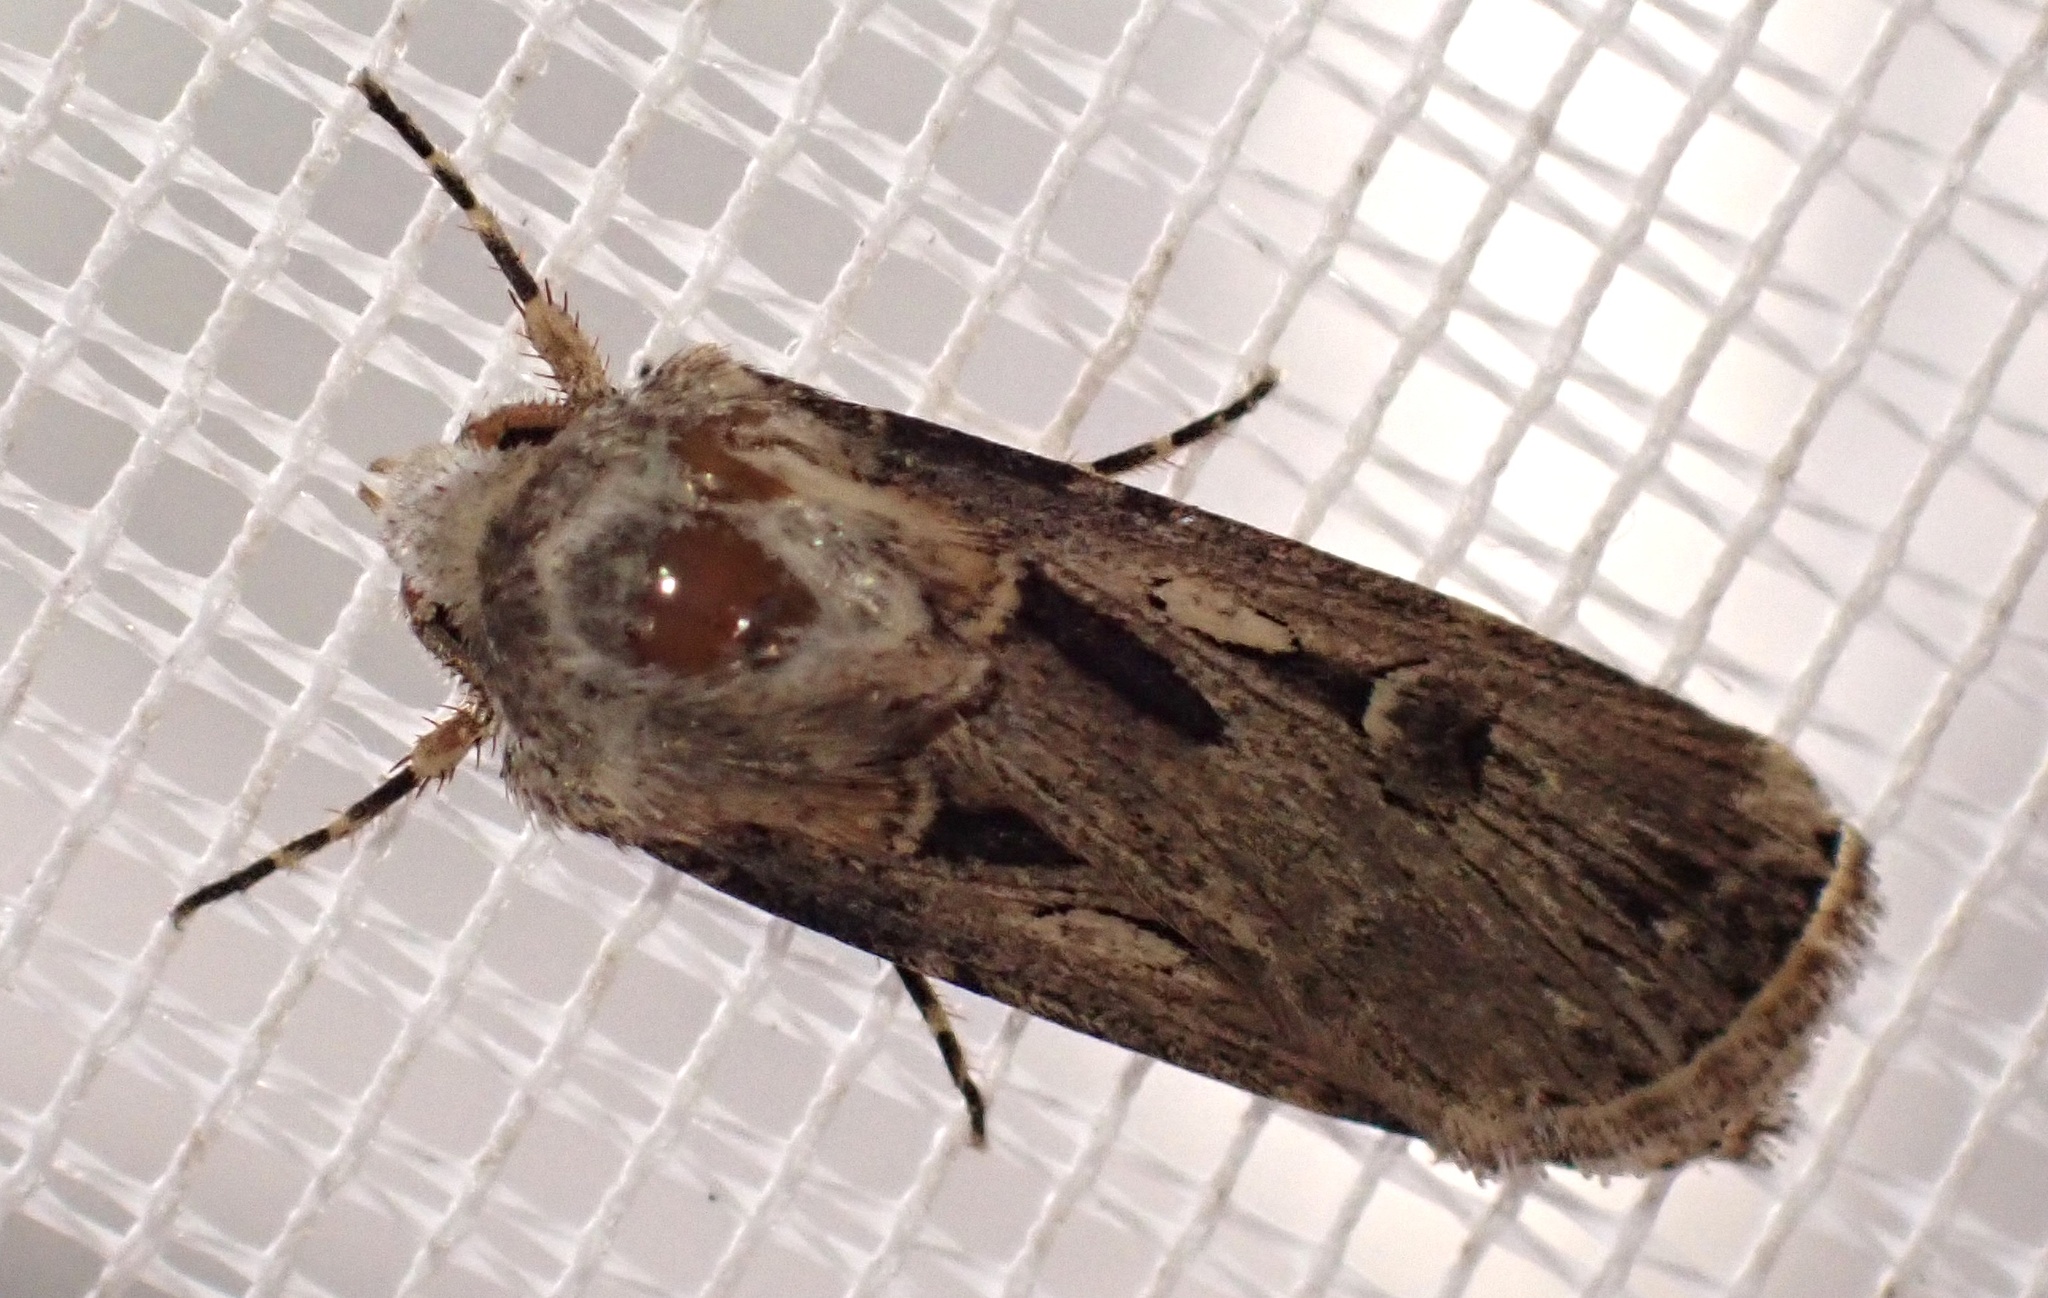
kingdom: Animalia
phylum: Arthropoda
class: Insecta
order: Lepidoptera
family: Noctuidae
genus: Agrotis
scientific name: Agrotis
